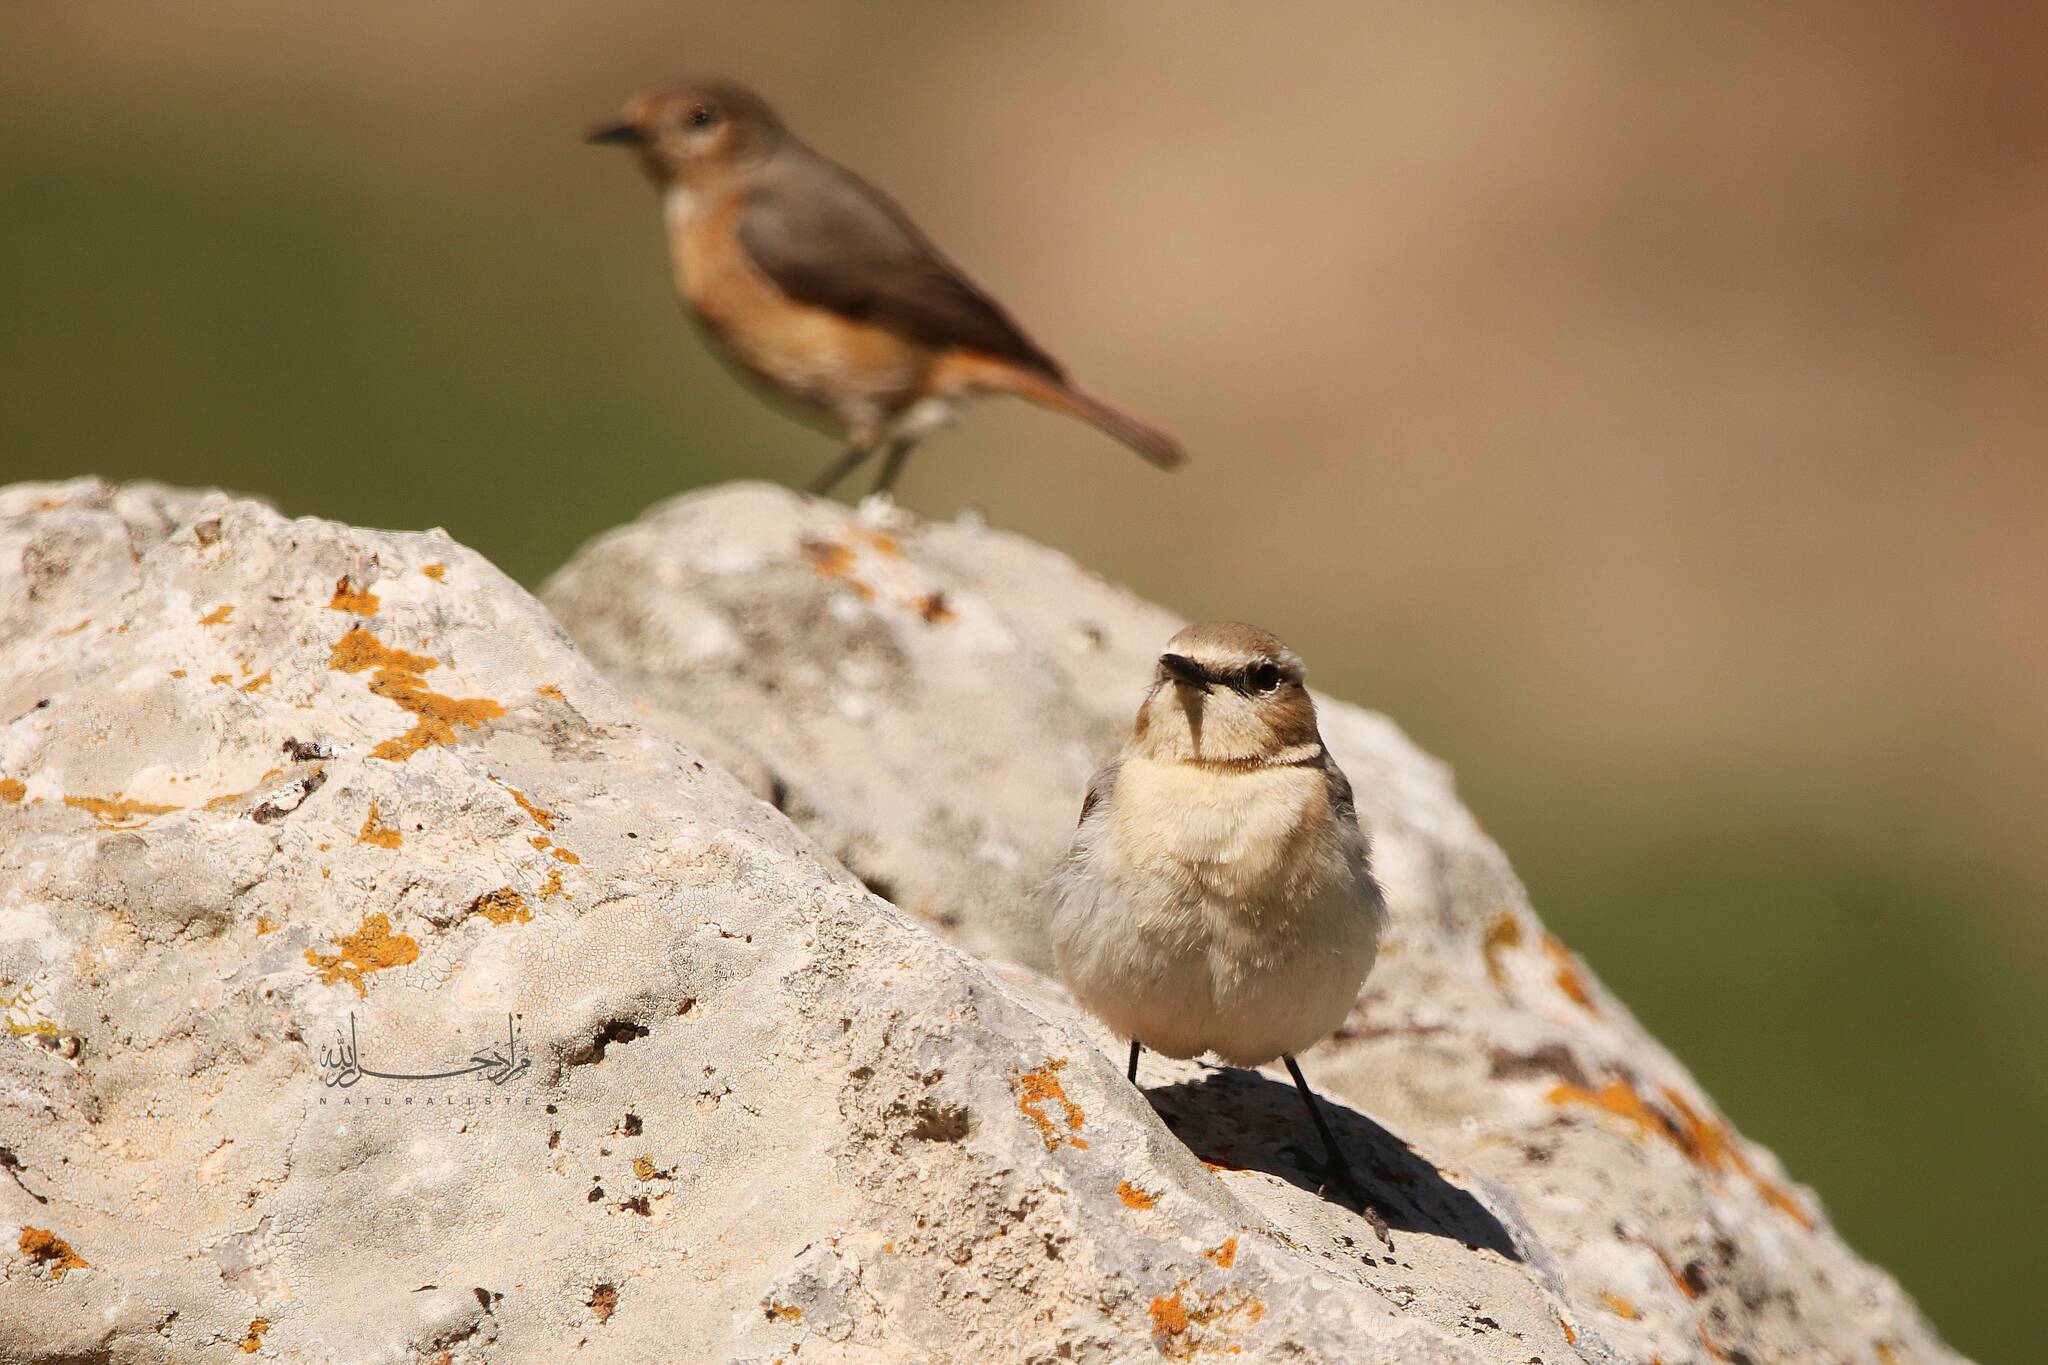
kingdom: Animalia
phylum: Chordata
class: Aves
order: Passeriformes
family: Muscicapidae
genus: Oenanthe
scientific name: Oenanthe oenanthe
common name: Northern wheatear
